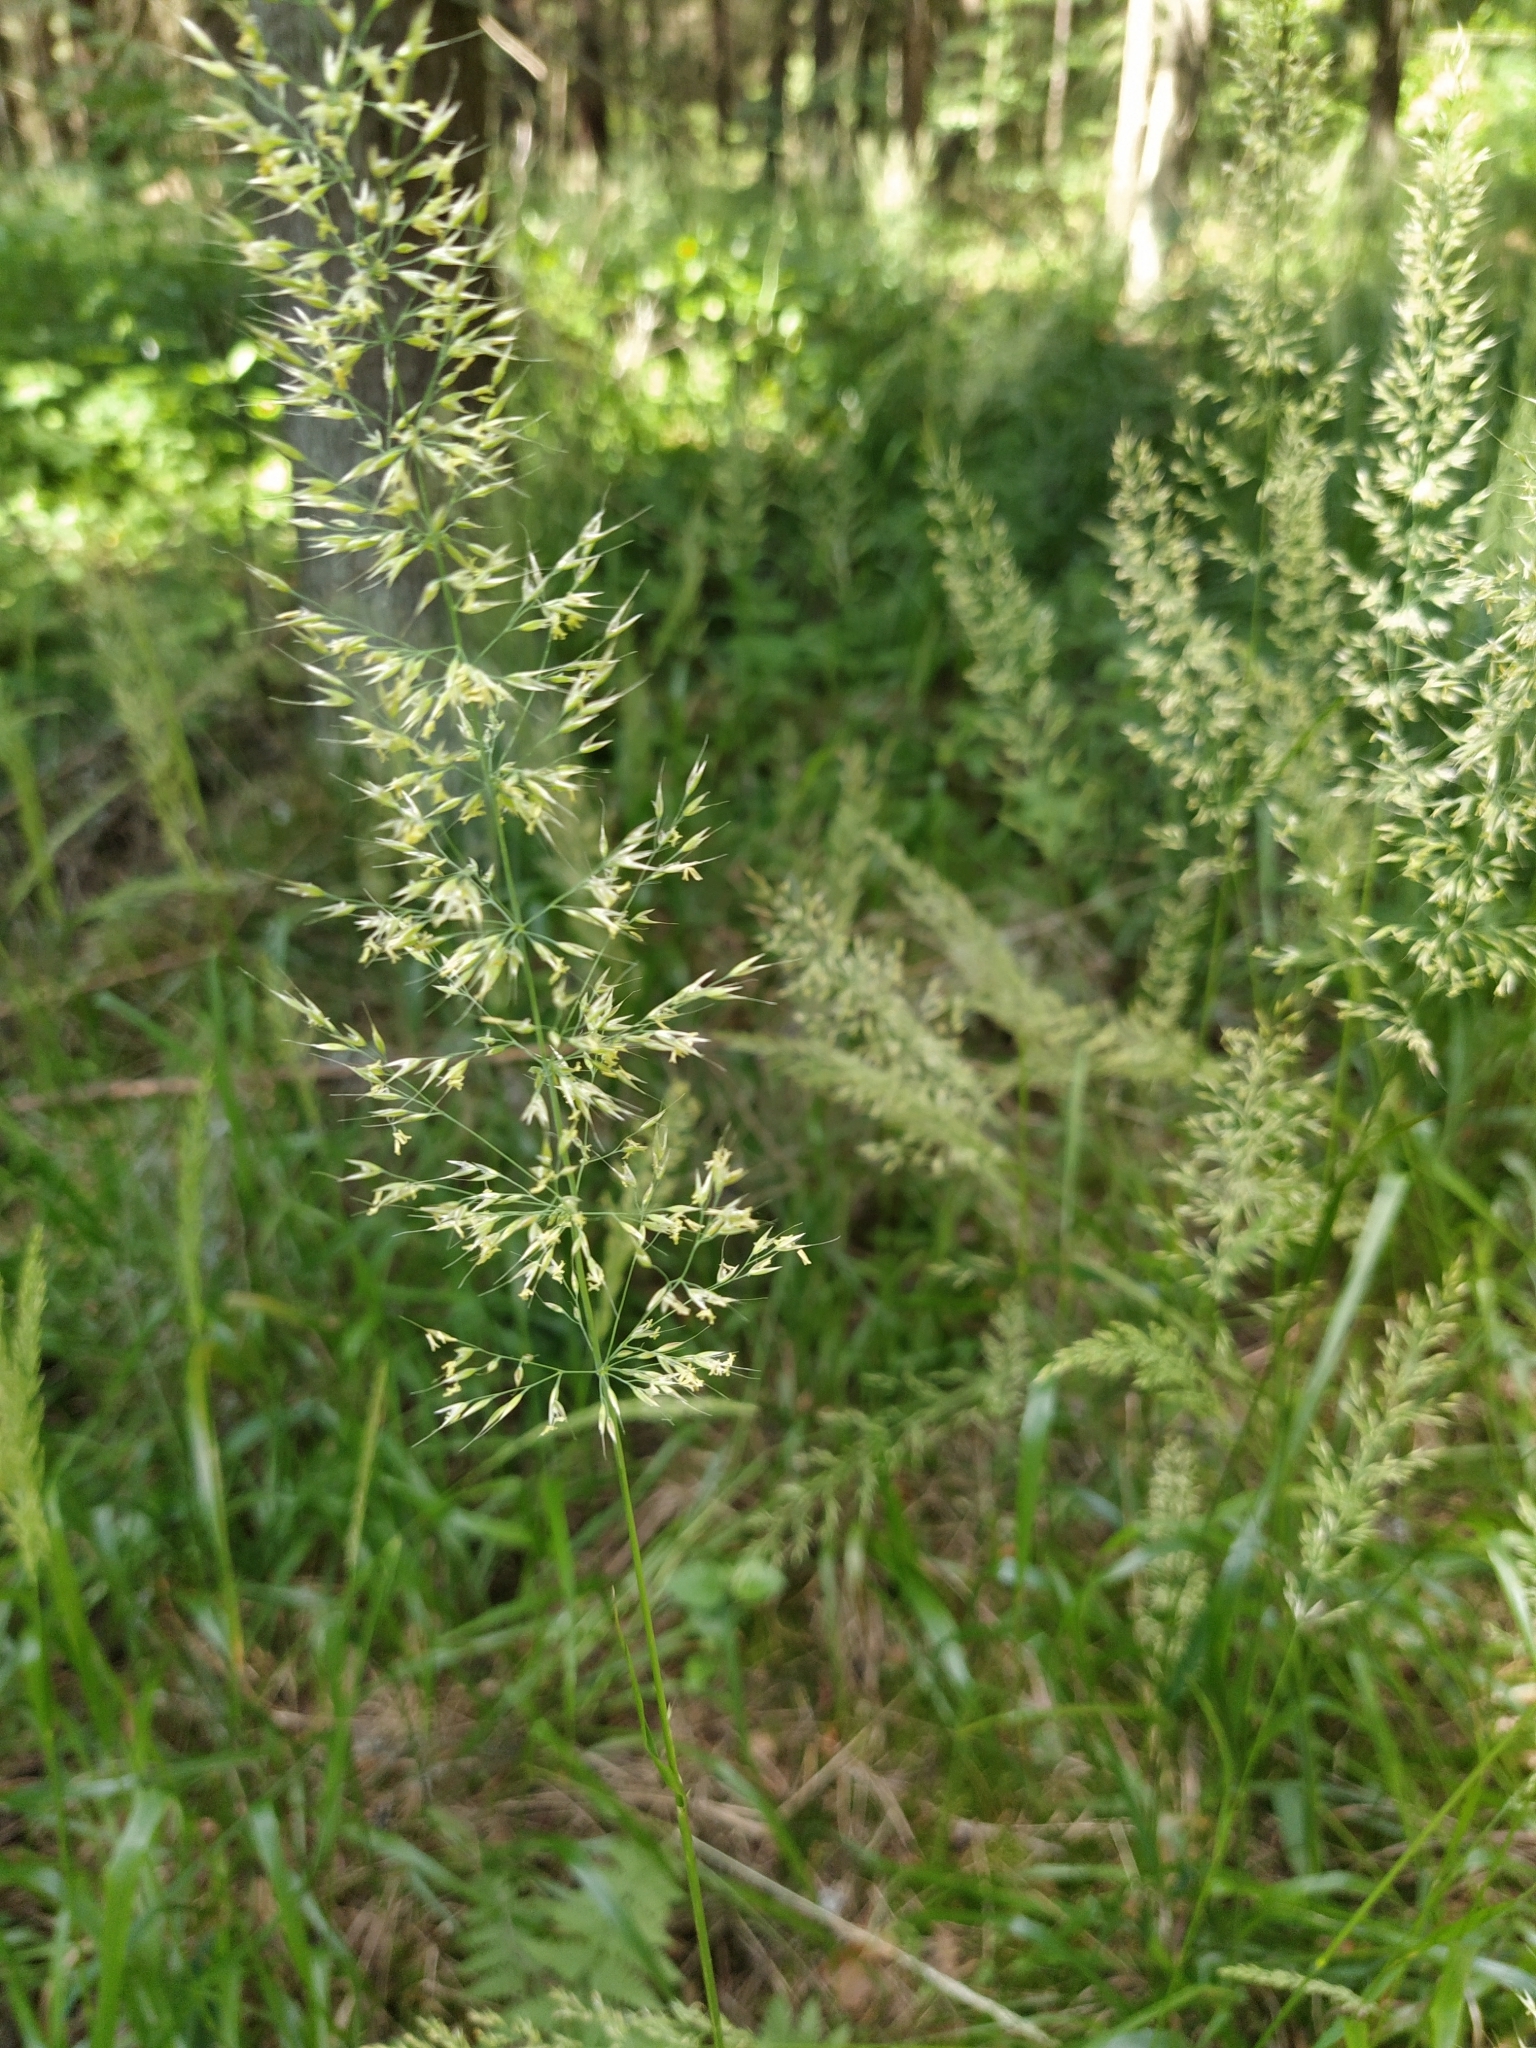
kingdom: Plantae
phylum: Tracheophyta
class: Liliopsida
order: Poales
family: Poaceae
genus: Calamagrostis
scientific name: Calamagrostis arundinacea
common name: Metskastik
